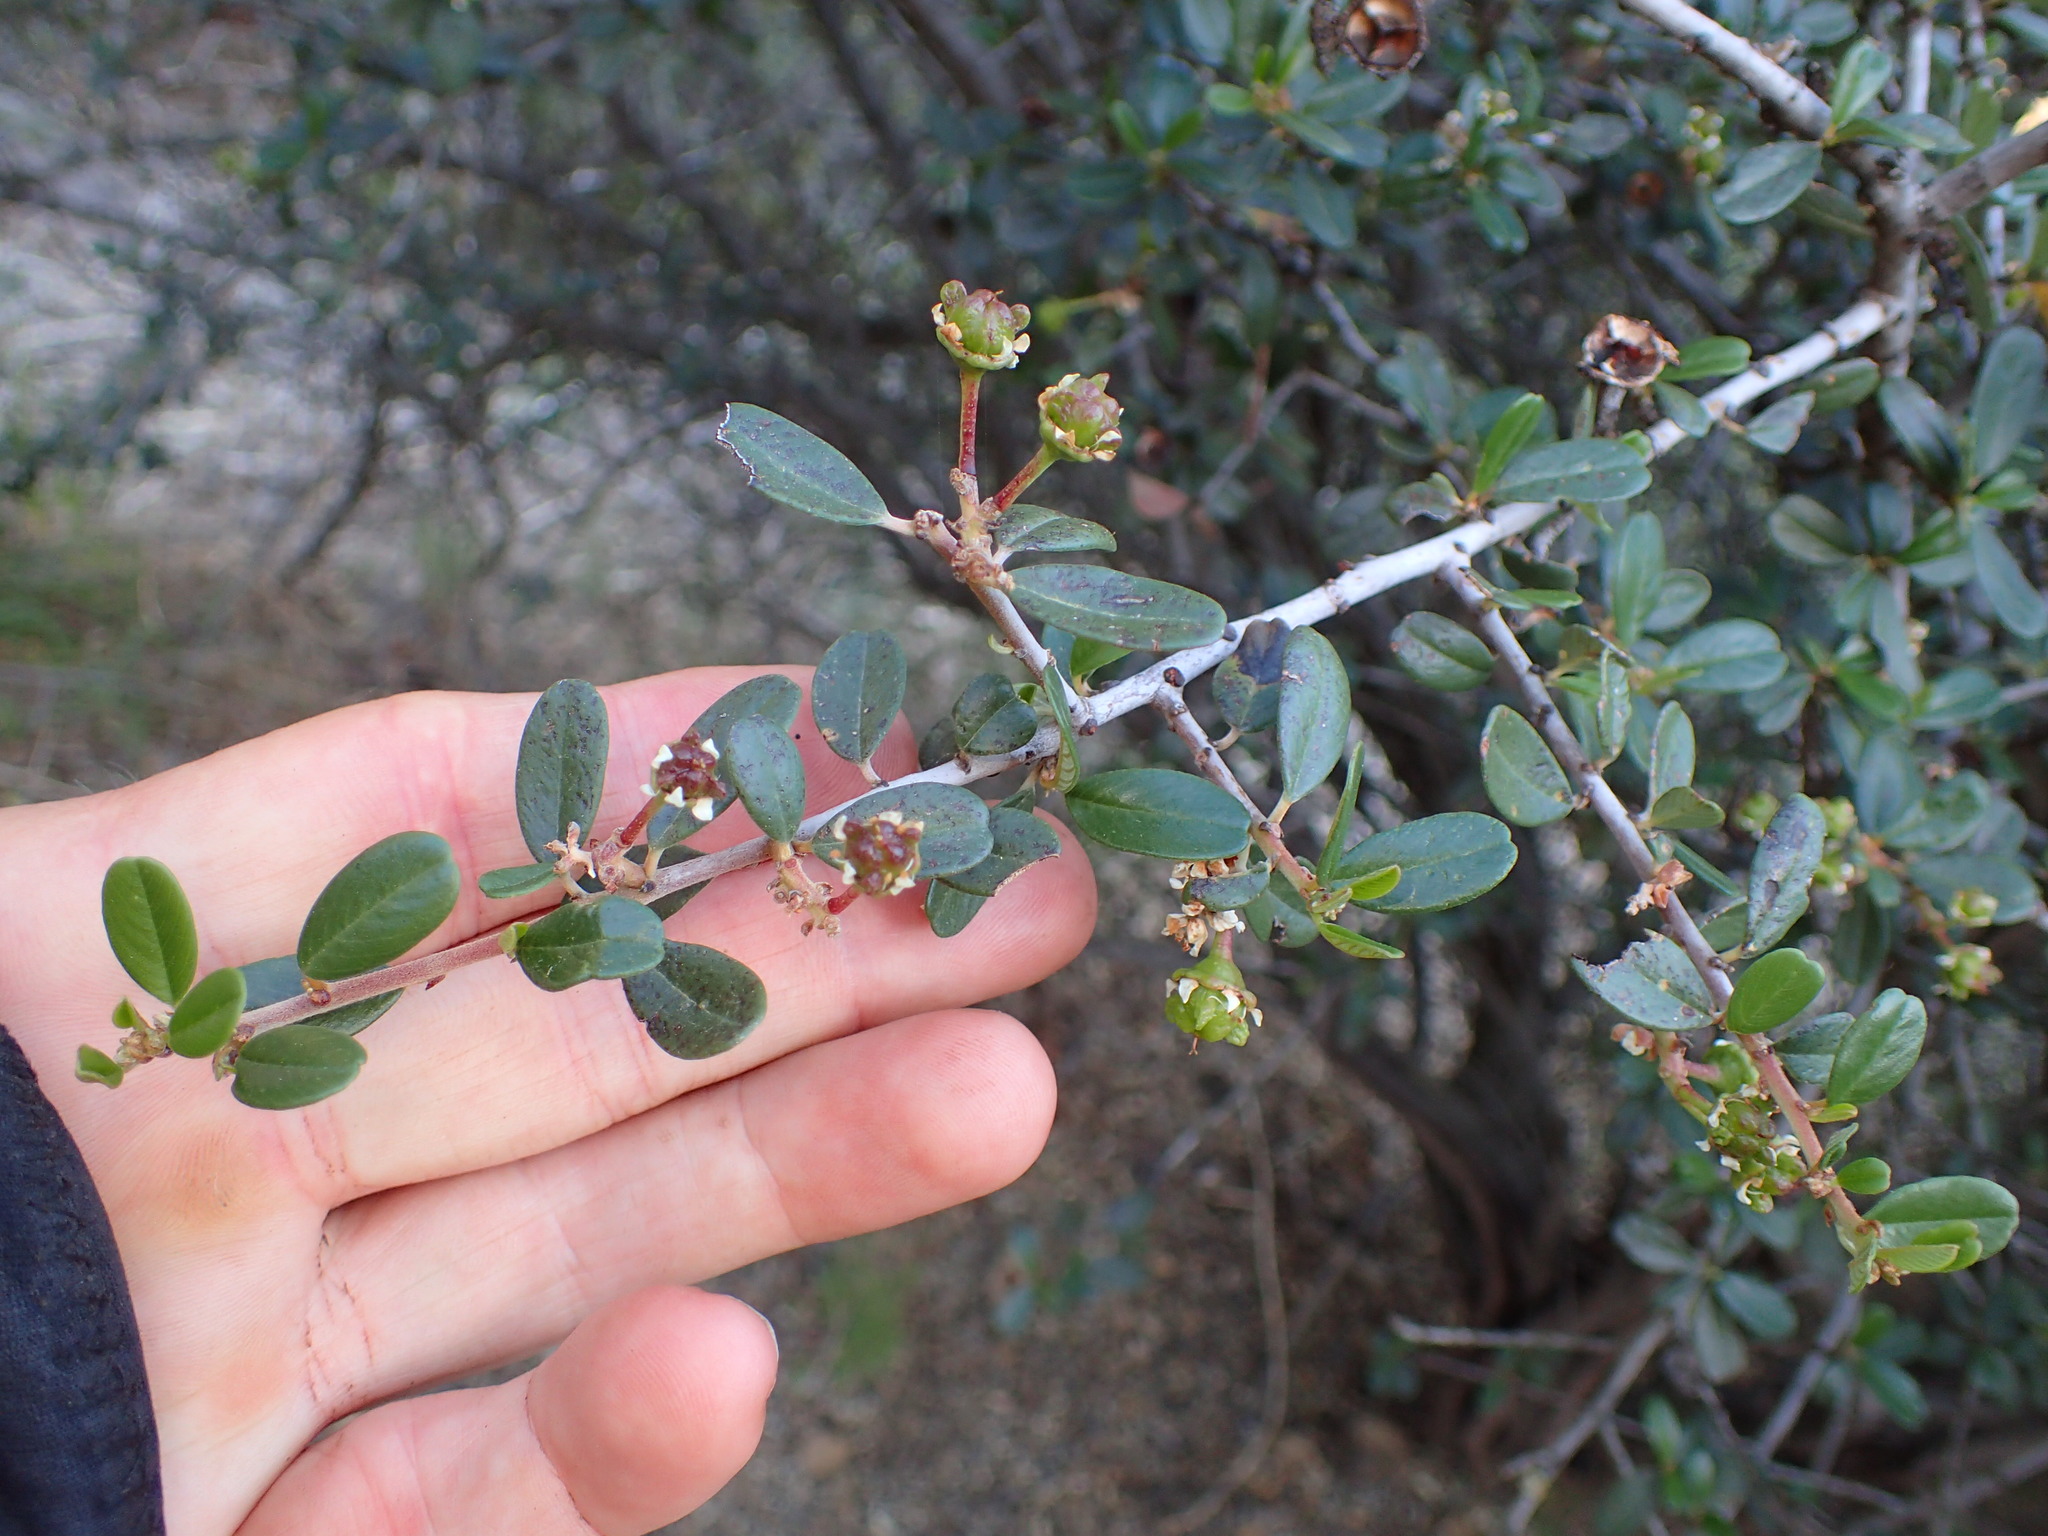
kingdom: Plantae
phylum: Tracheophyta
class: Magnoliopsida
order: Rosales
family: Rhamnaceae
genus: Ceanothus
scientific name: Ceanothus megacarpus
